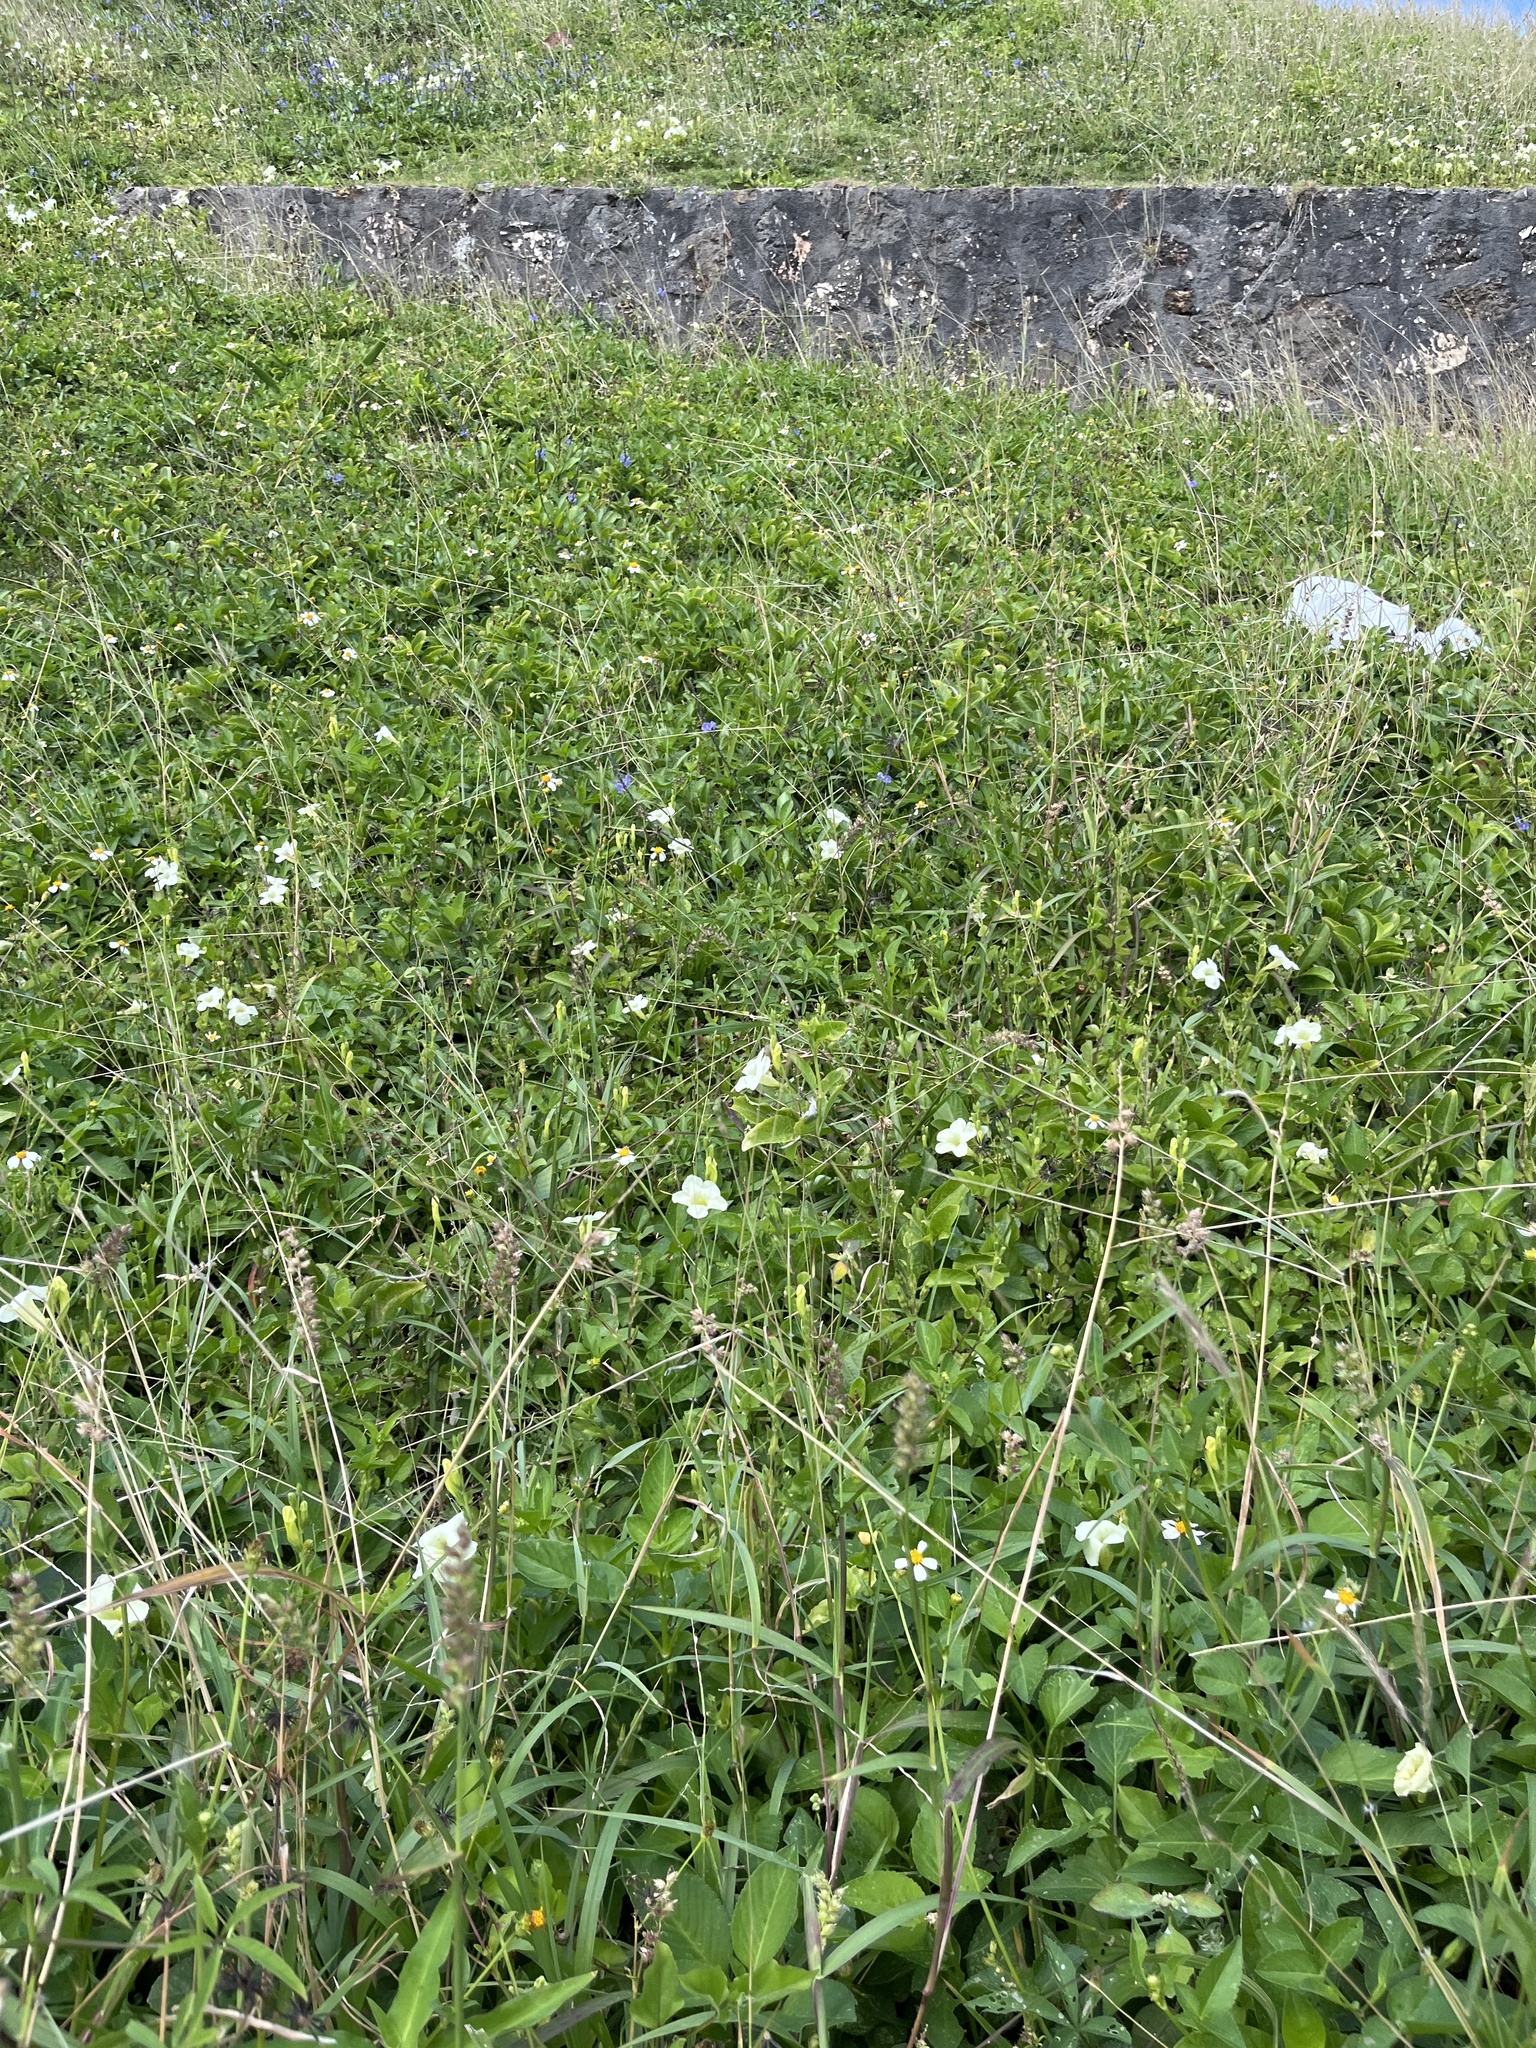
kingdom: Plantae
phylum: Tracheophyta
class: Magnoliopsida
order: Lamiales
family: Acanthaceae
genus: Asystasia
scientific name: Asystasia gangetica
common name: Chinese violet
